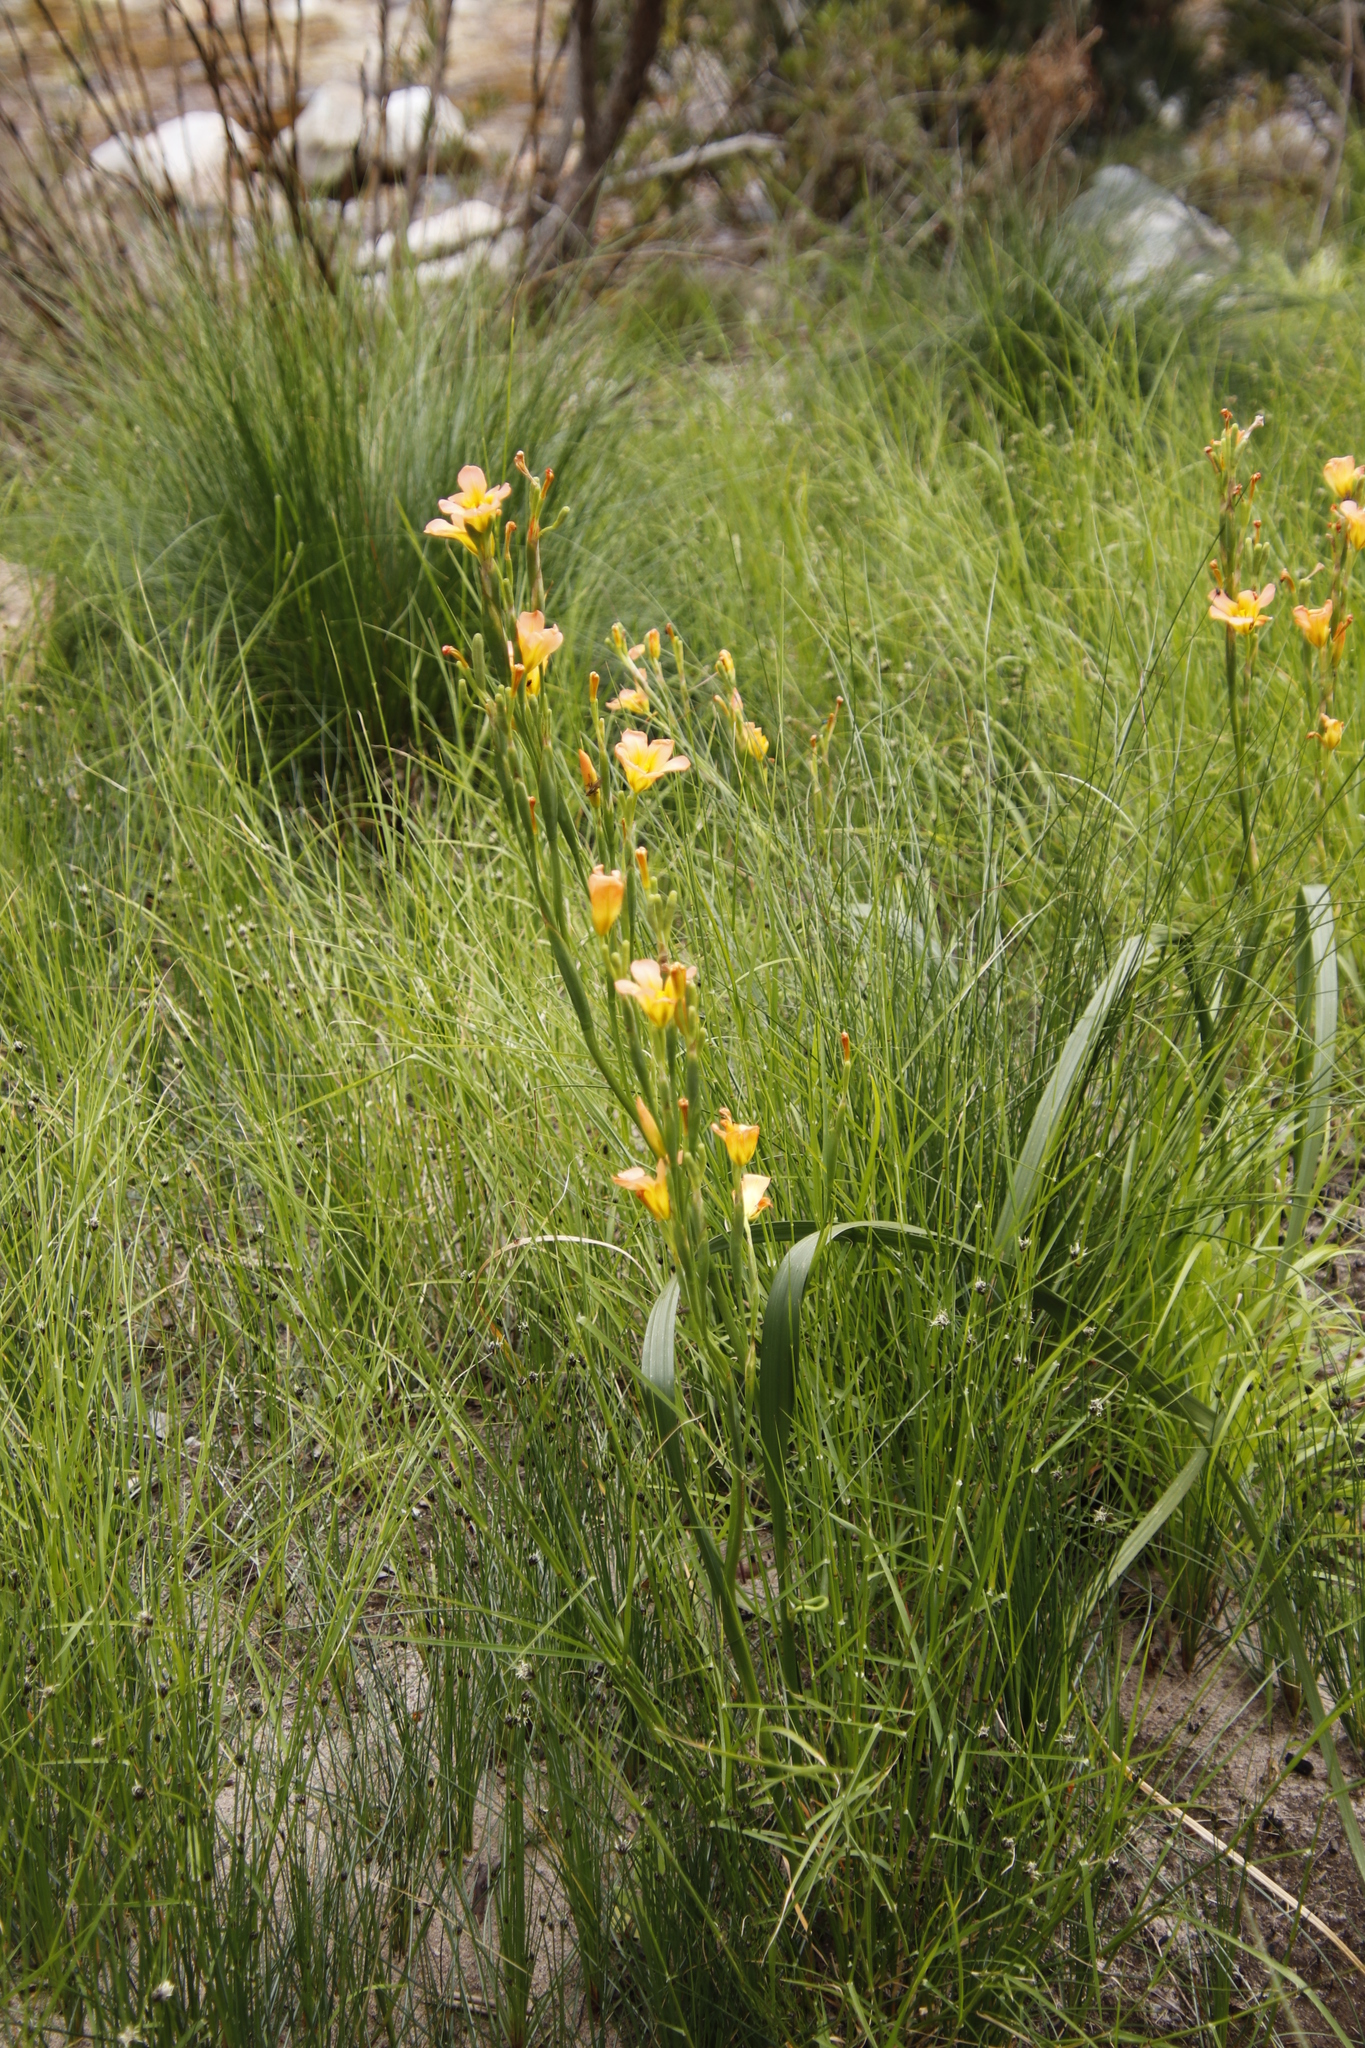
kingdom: Plantae
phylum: Tracheophyta
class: Liliopsida
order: Asparagales
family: Iridaceae
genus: Moraea
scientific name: Moraea ochroleuca
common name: Red tulp
